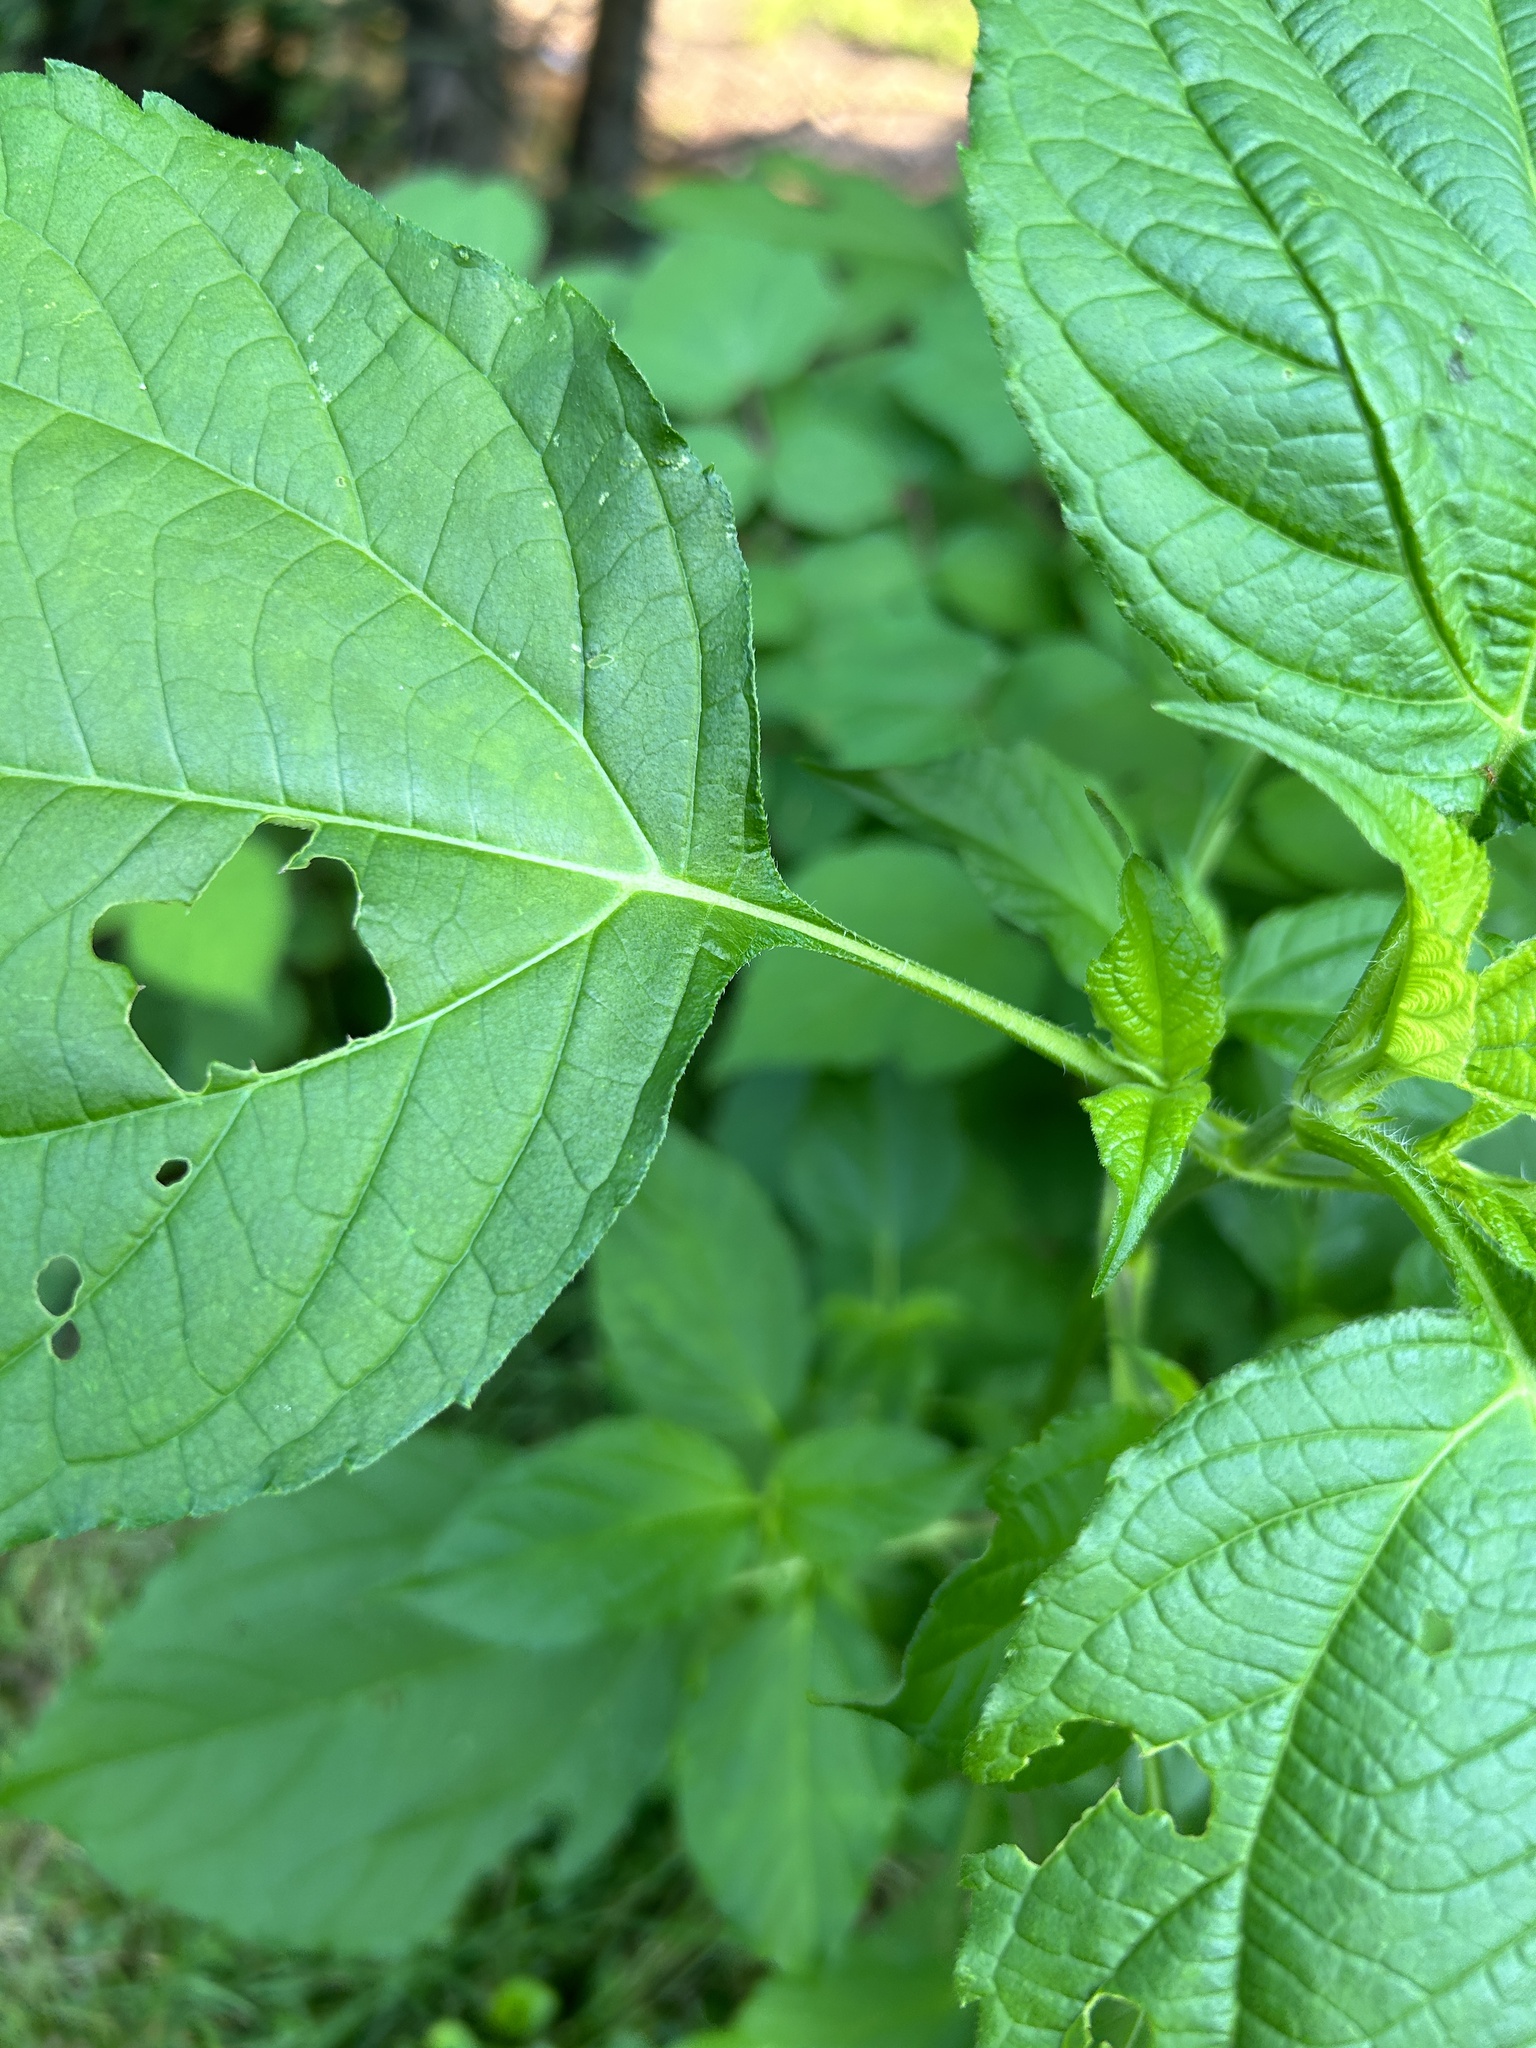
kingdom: Plantae
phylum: Tracheophyta
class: Magnoliopsida
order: Asterales
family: Asteraceae
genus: Ambrosia
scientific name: Ambrosia trifida
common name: Giant ragweed
